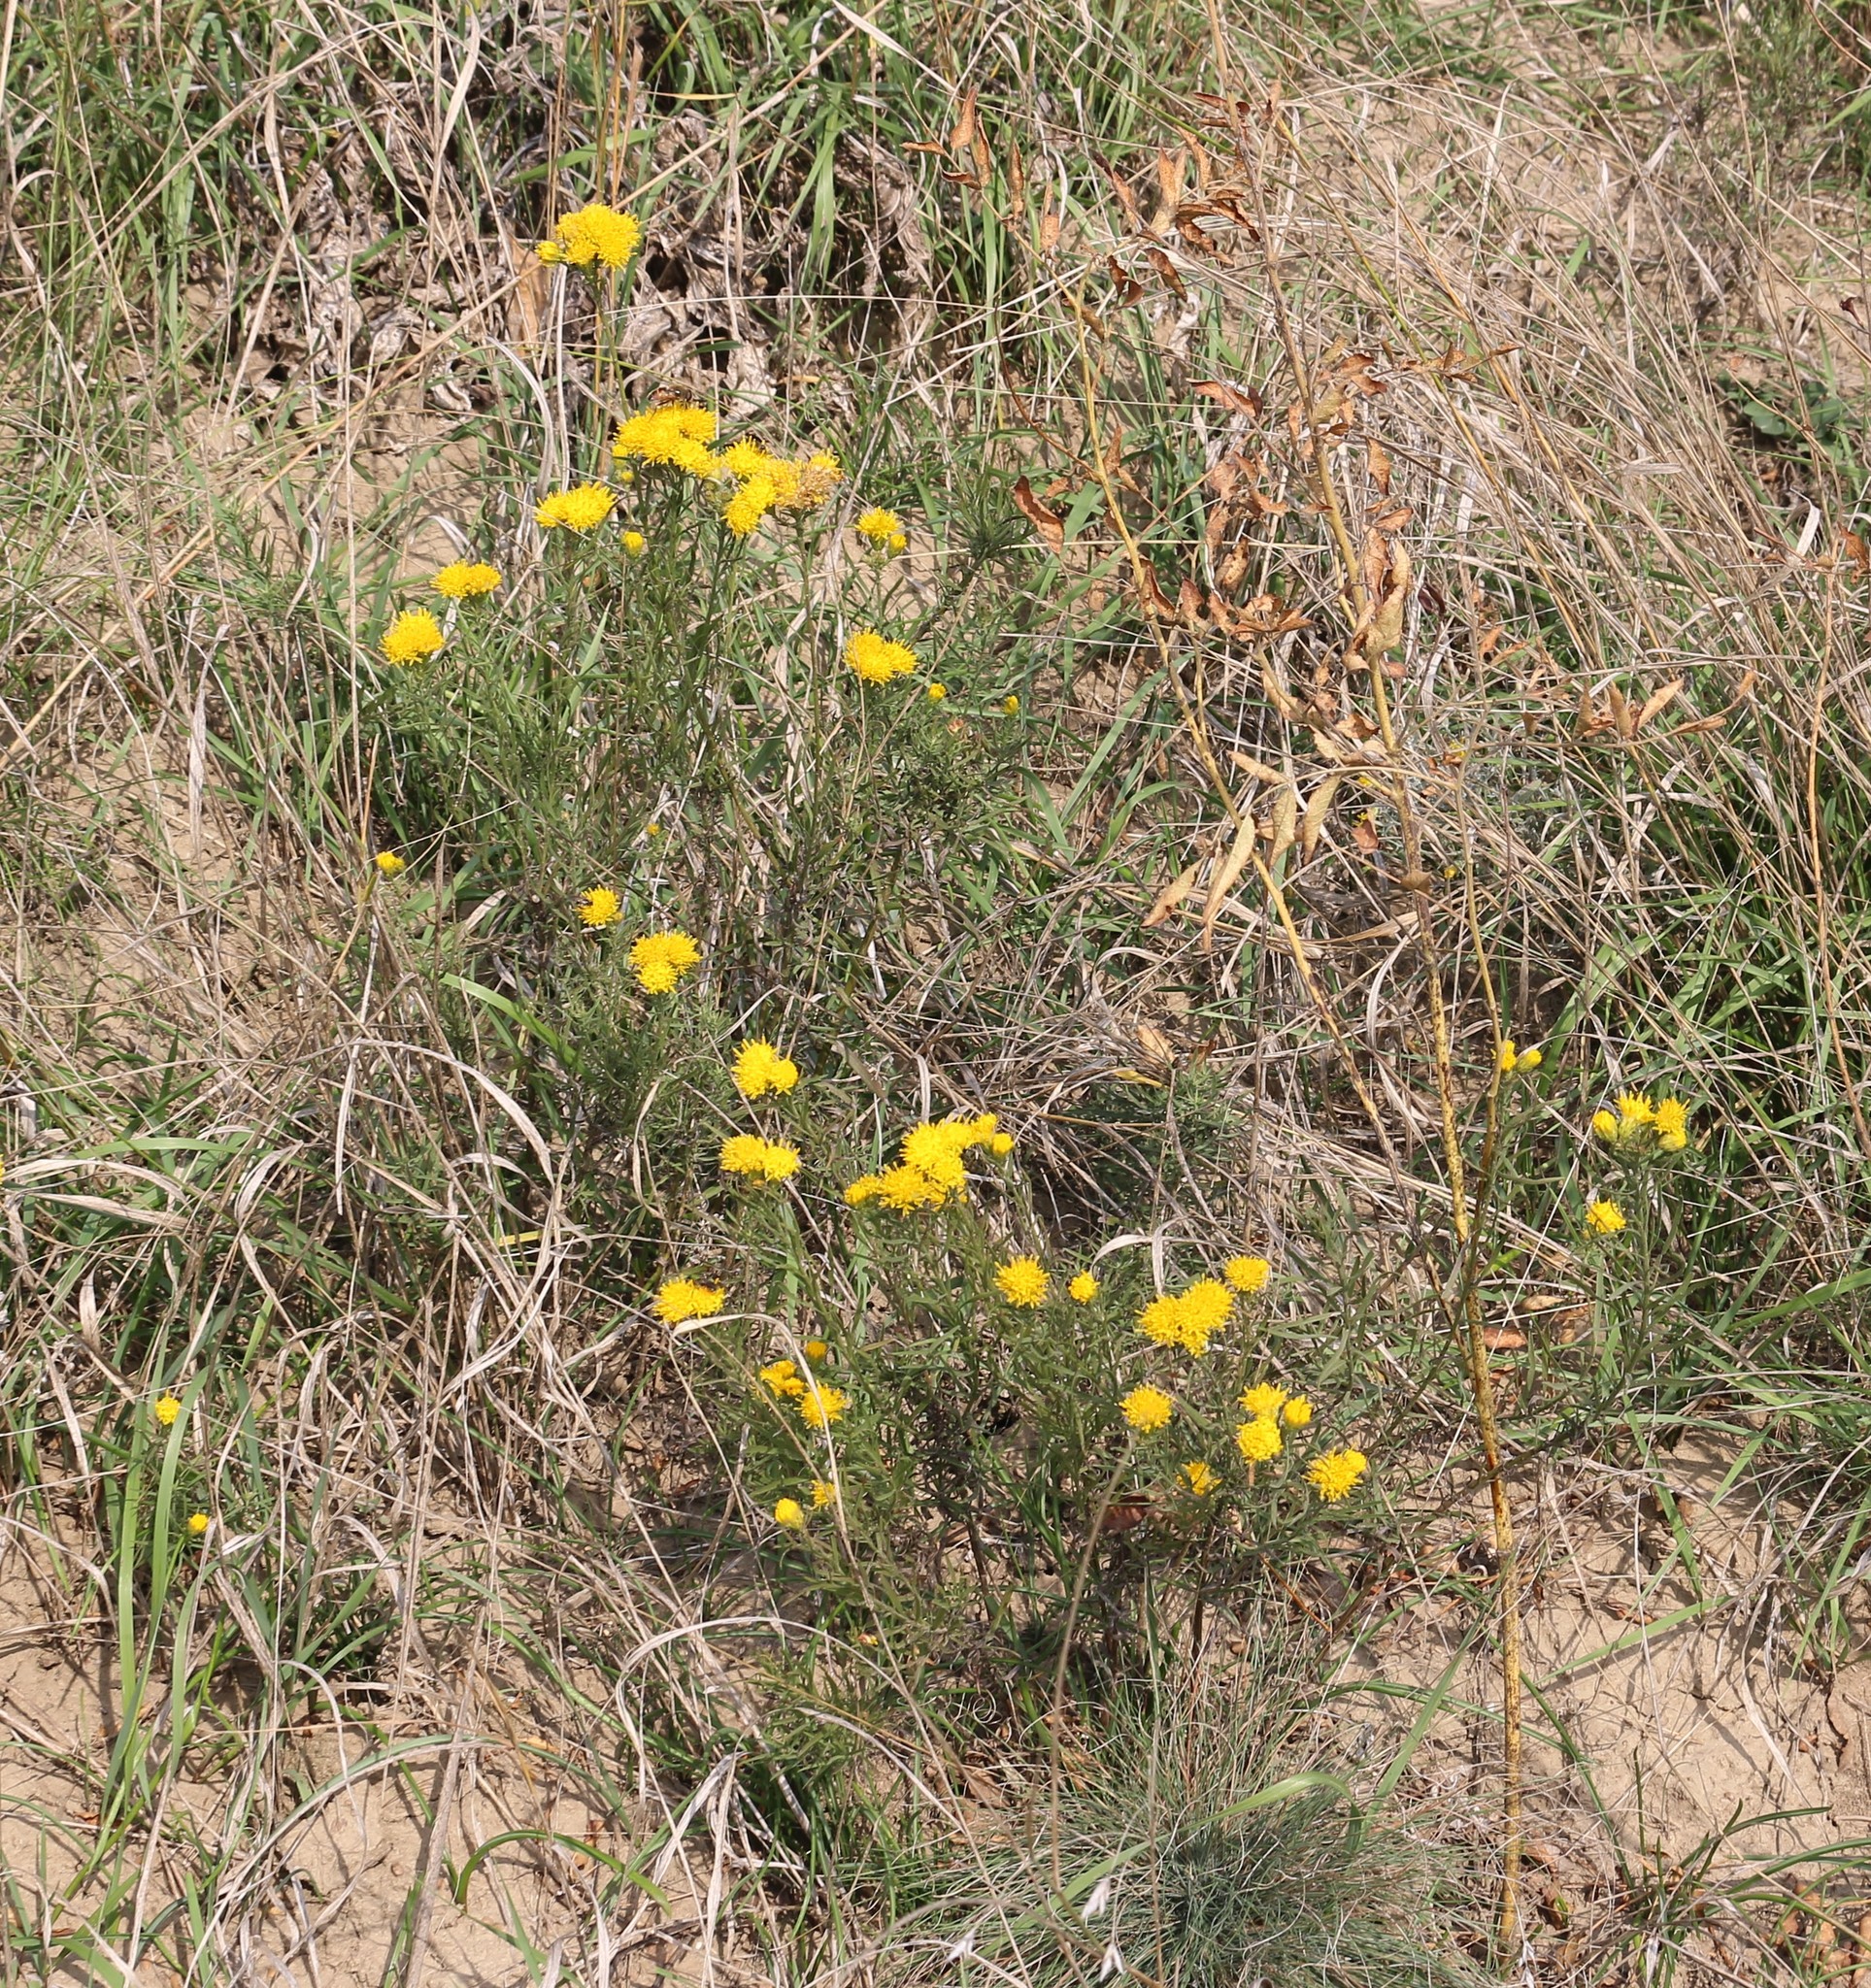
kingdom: Plantae
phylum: Tracheophyta
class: Magnoliopsida
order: Asterales
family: Asteraceae
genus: Galatella
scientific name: Galatella linosyris
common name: Goldilocks aster
